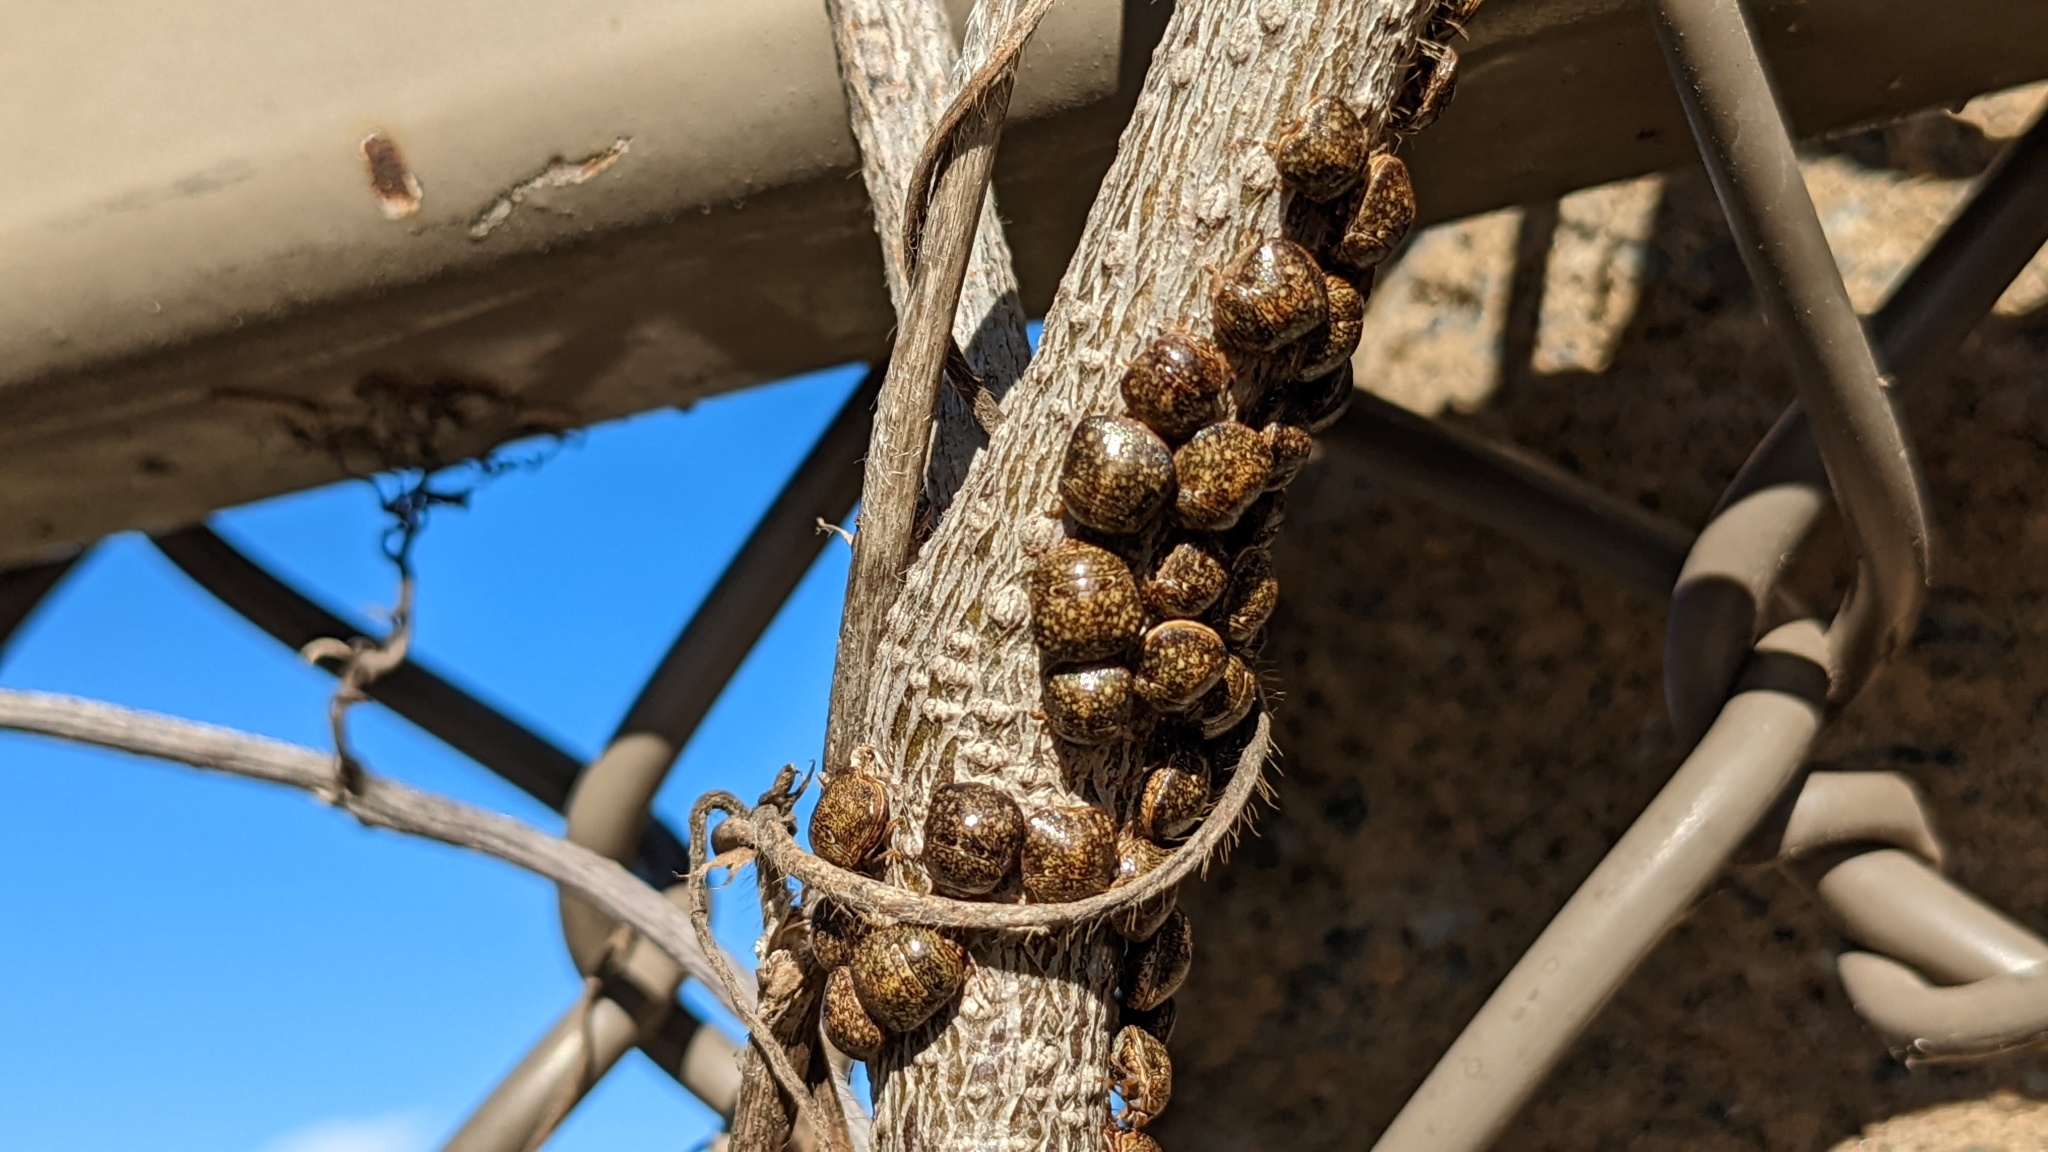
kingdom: Animalia
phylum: Arthropoda
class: Insecta
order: Hemiptera
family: Plataspidae
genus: Megacopta
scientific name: Megacopta cribraria
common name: Bean plataspid
